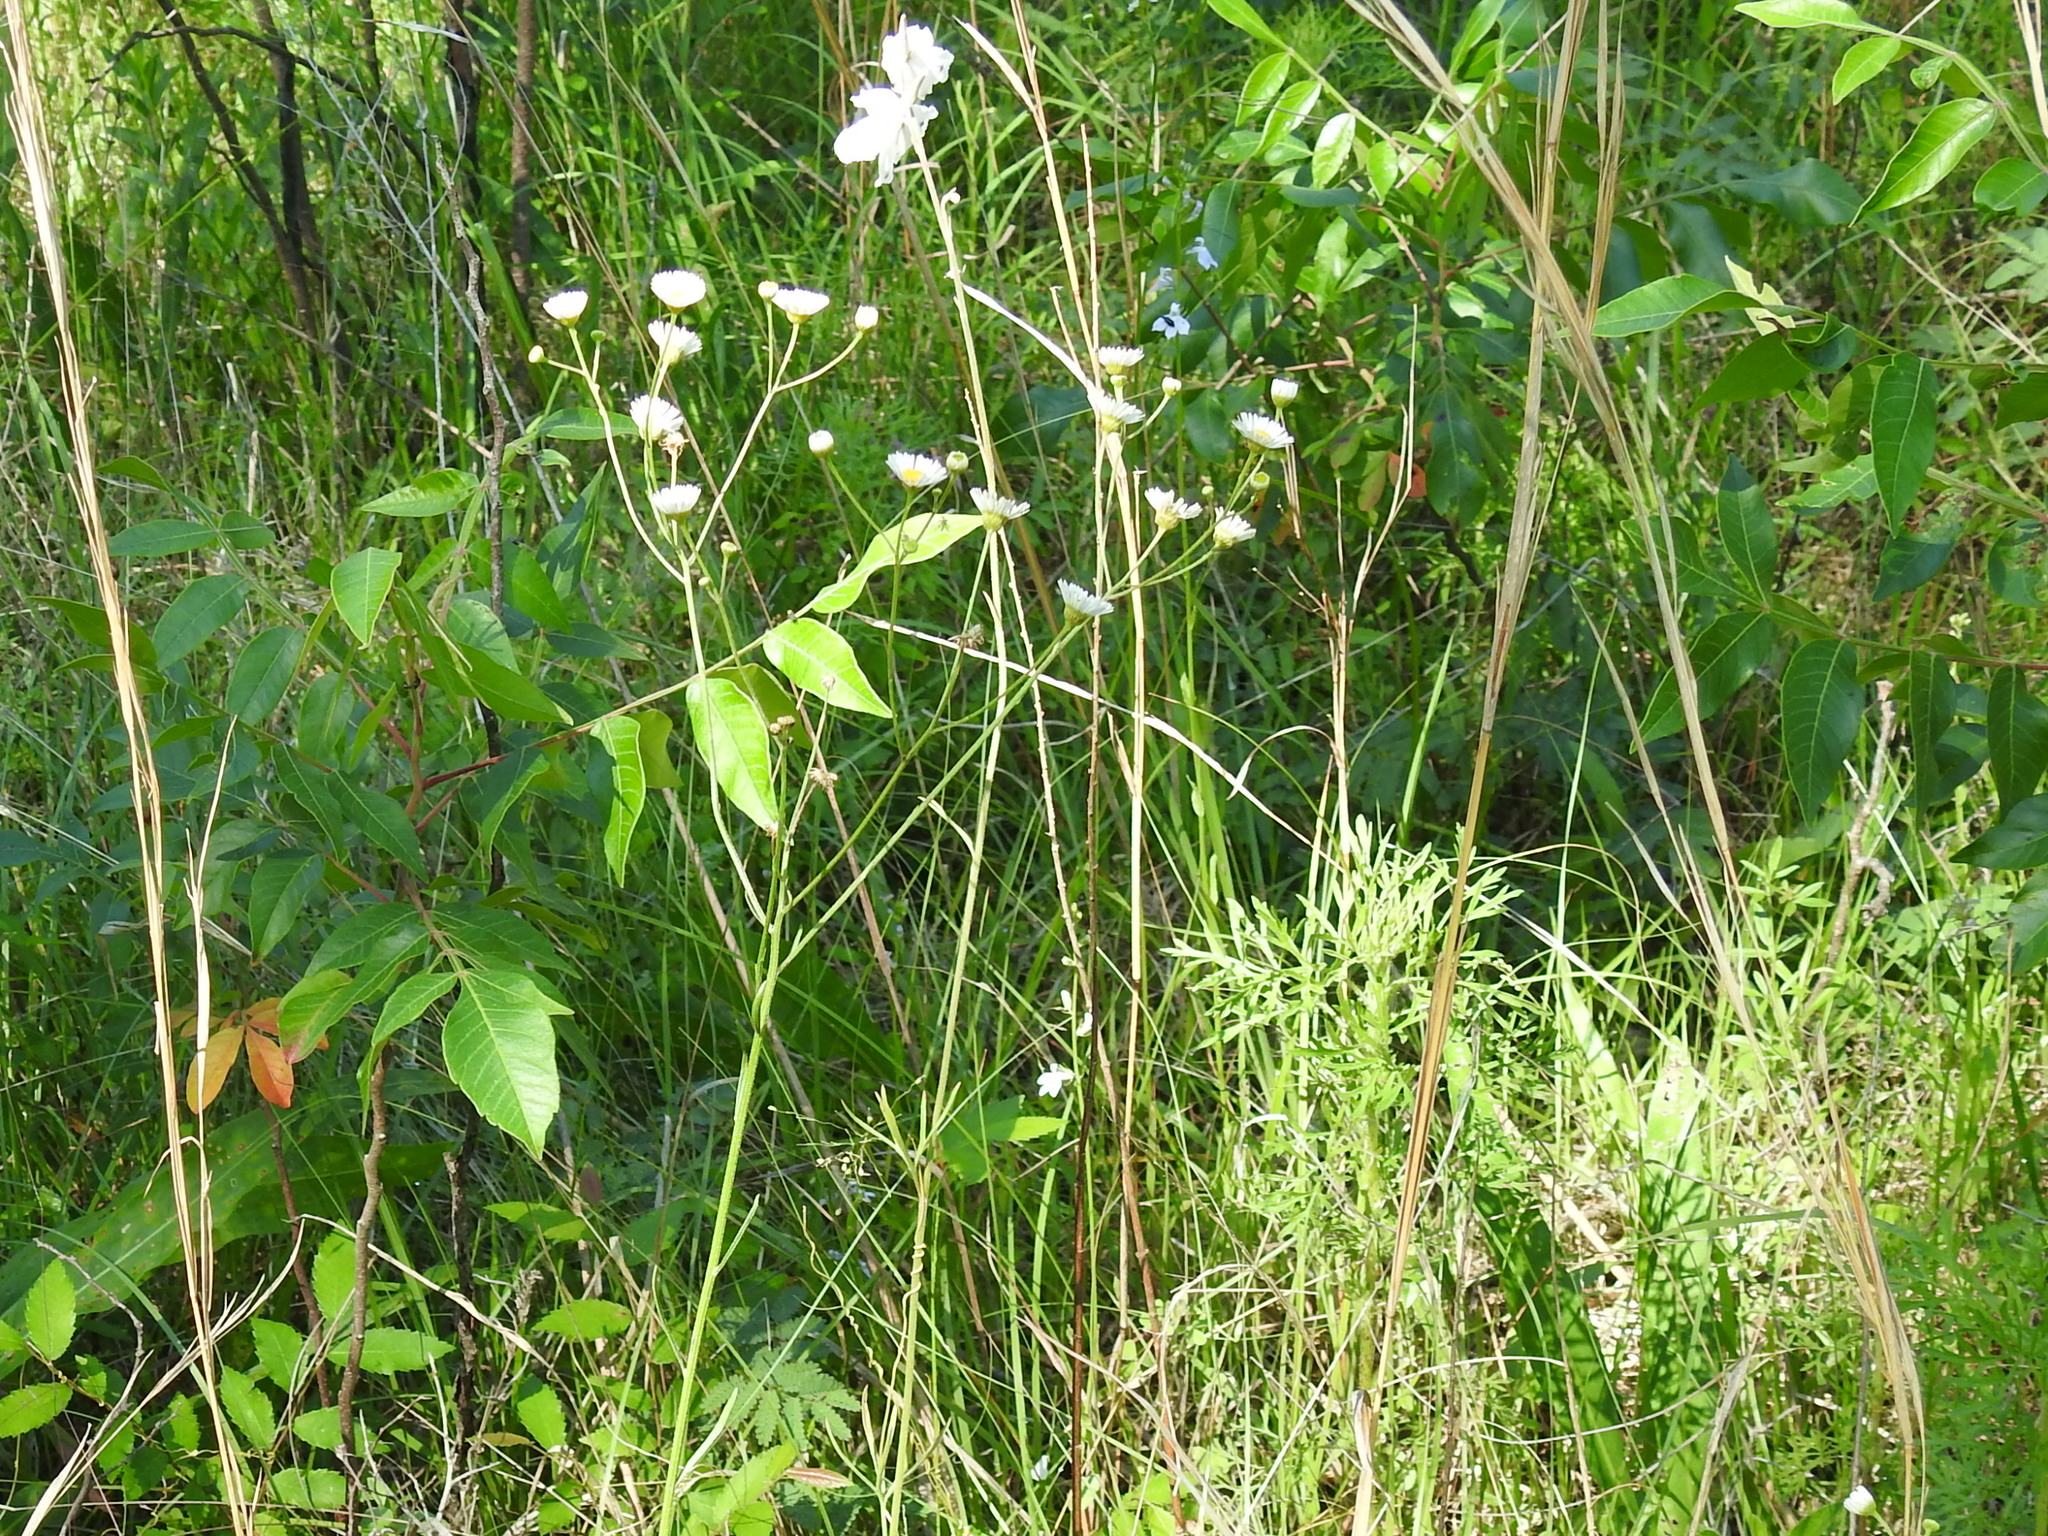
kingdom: Plantae
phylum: Tracheophyta
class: Magnoliopsida
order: Ranunculales
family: Ranunculaceae
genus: Delphinium
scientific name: Delphinium carolinianum
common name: Carolina larkspur
